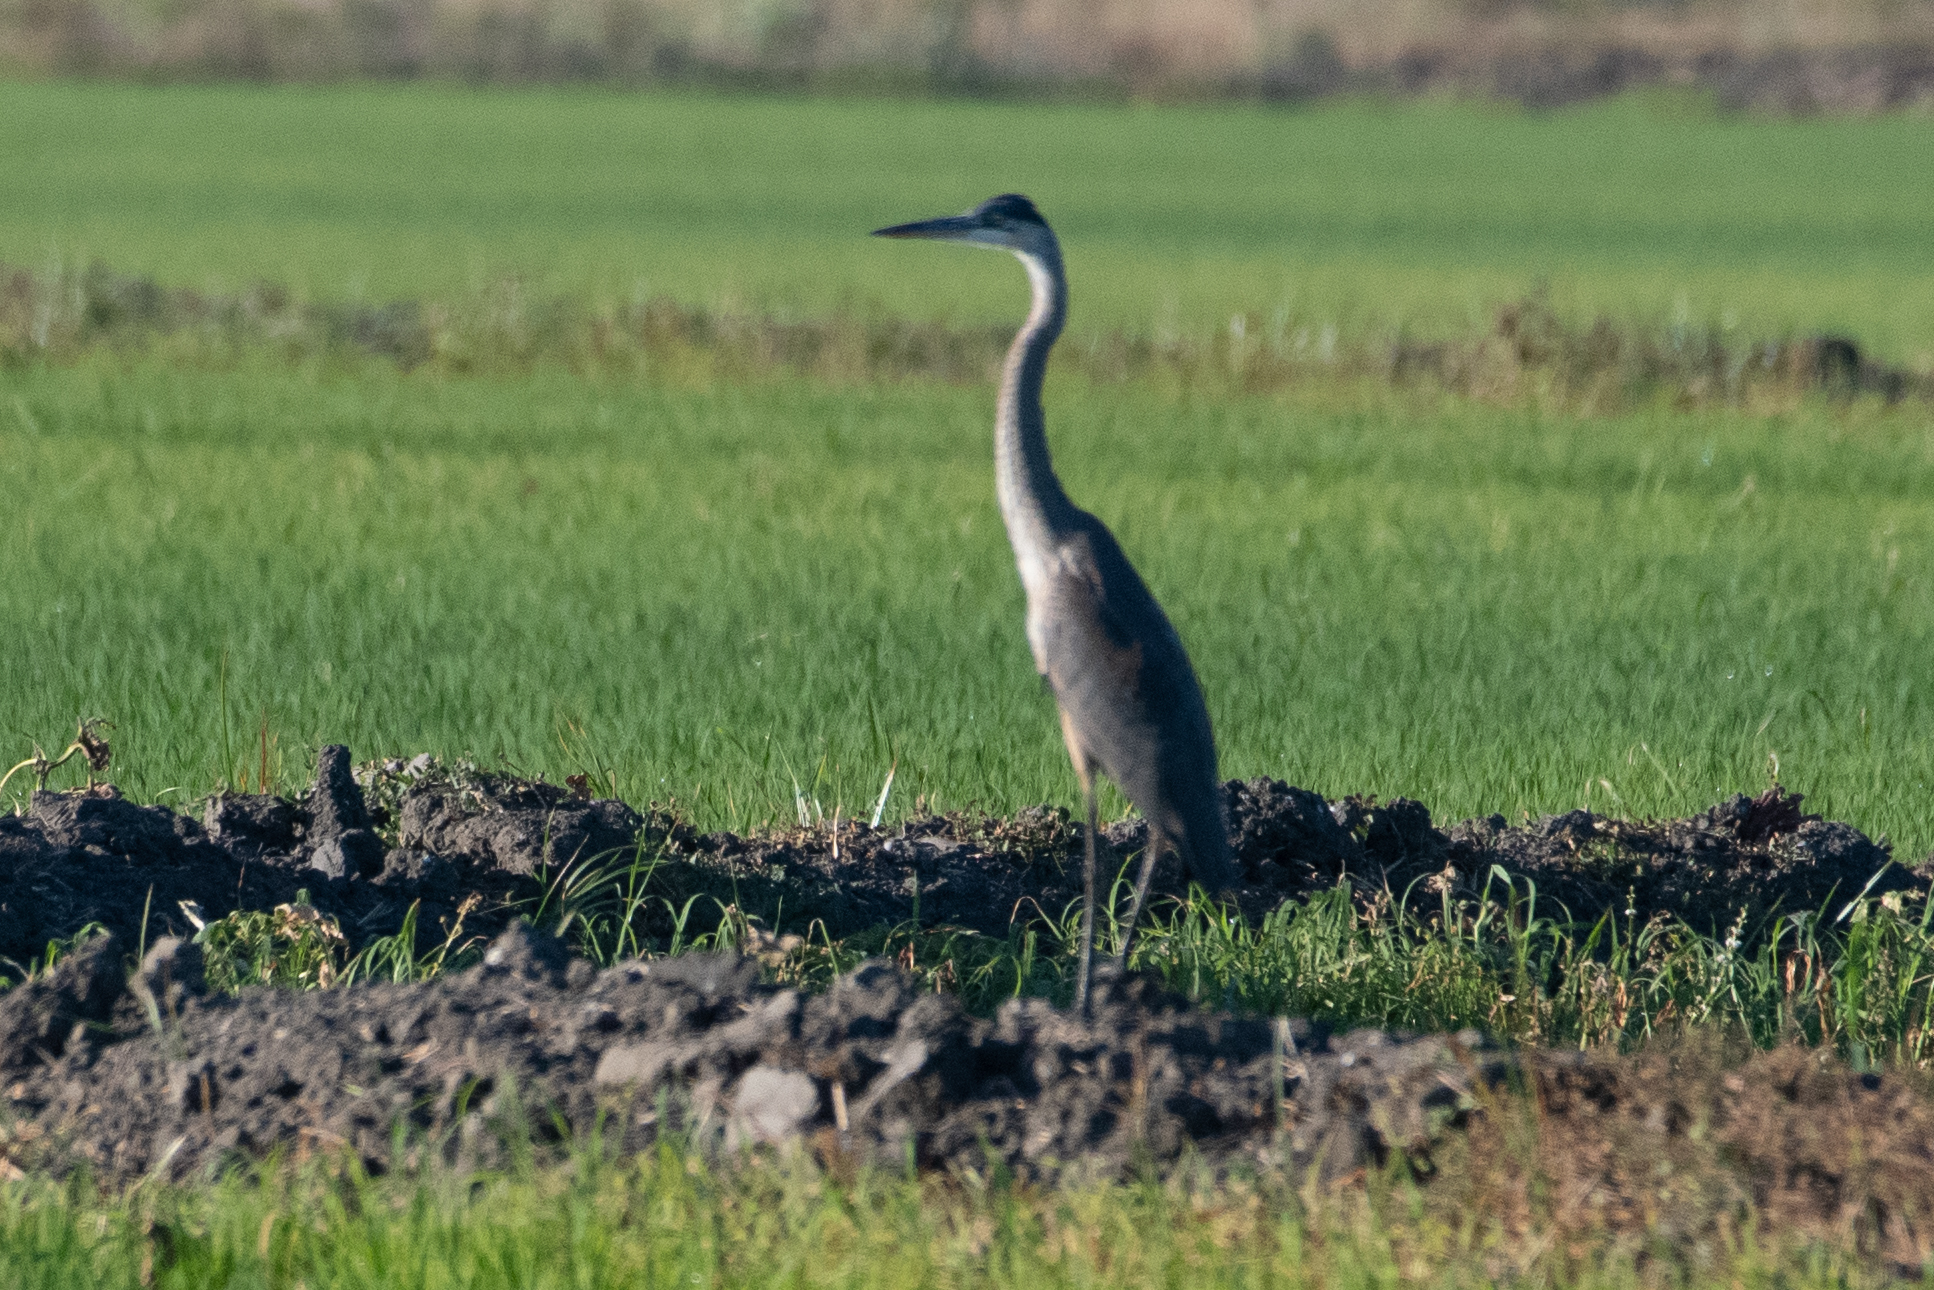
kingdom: Animalia
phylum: Chordata
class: Aves
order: Pelecaniformes
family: Ardeidae
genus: Ardea
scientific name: Ardea herodias
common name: Great blue heron
